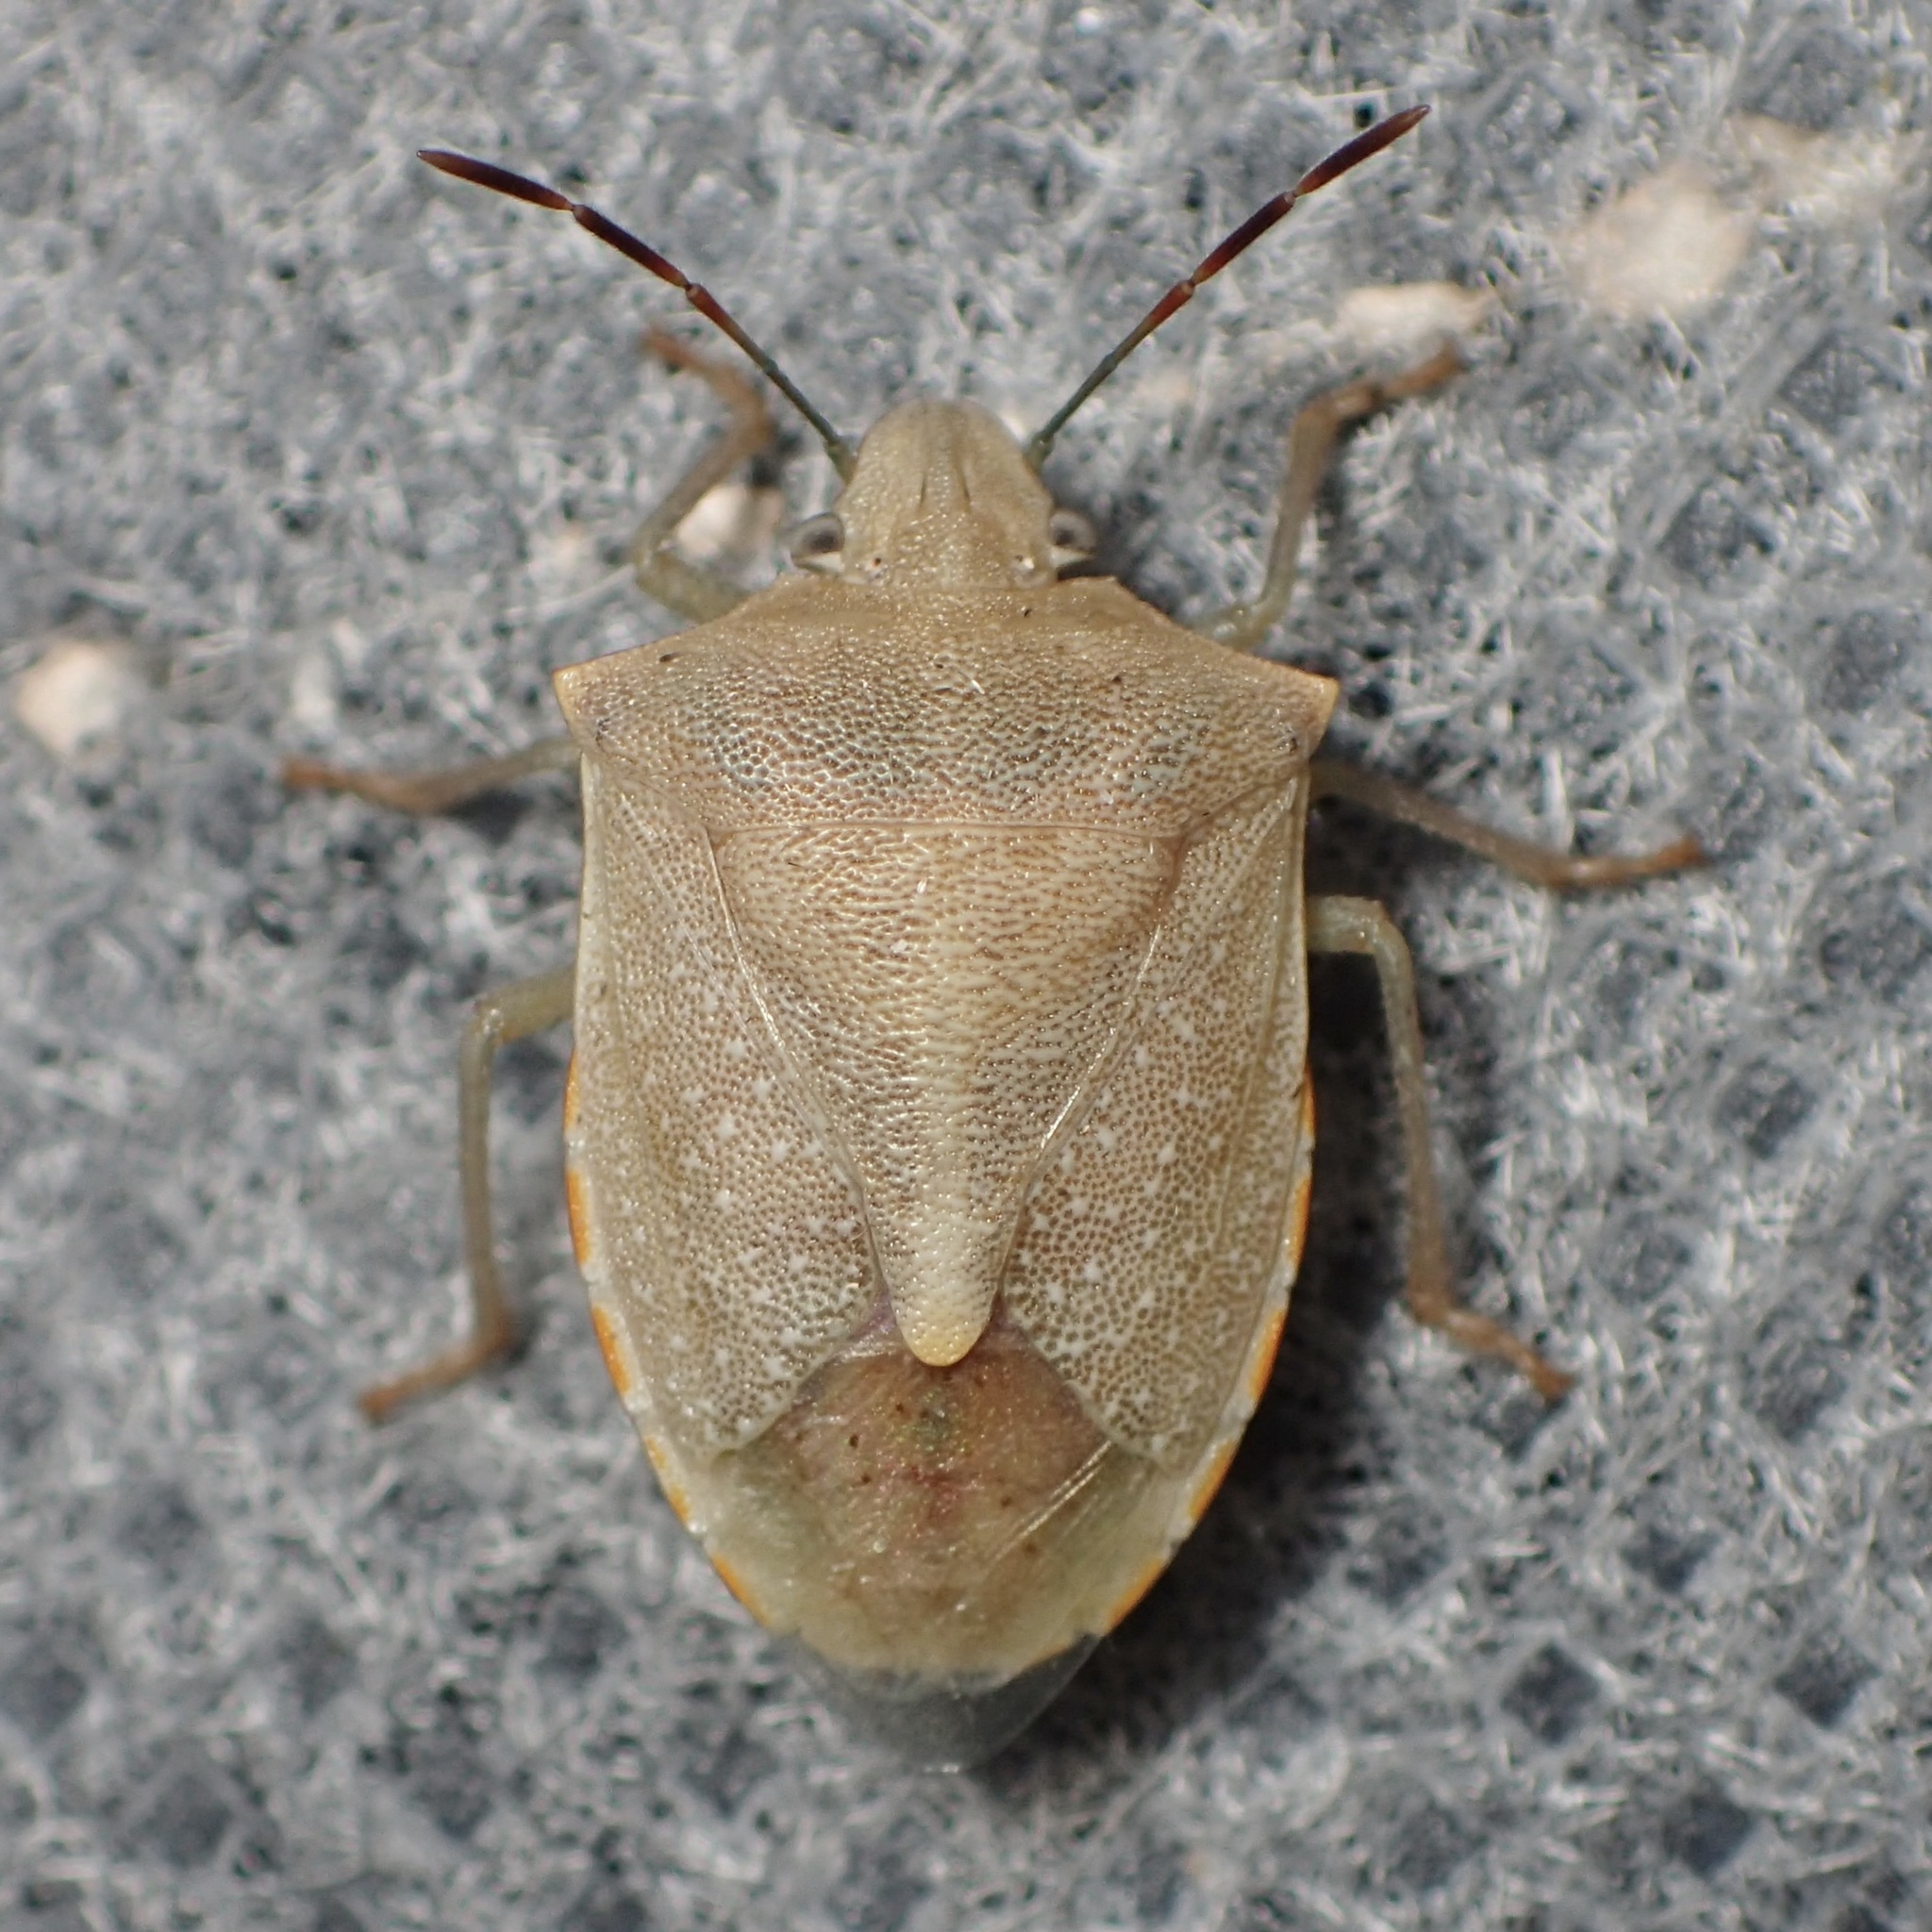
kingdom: Animalia
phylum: Arthropoda
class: Insecta
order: Hemiptera
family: Pentatomidae
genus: Thyanta
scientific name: Thyanta accerra
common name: Stink bug
